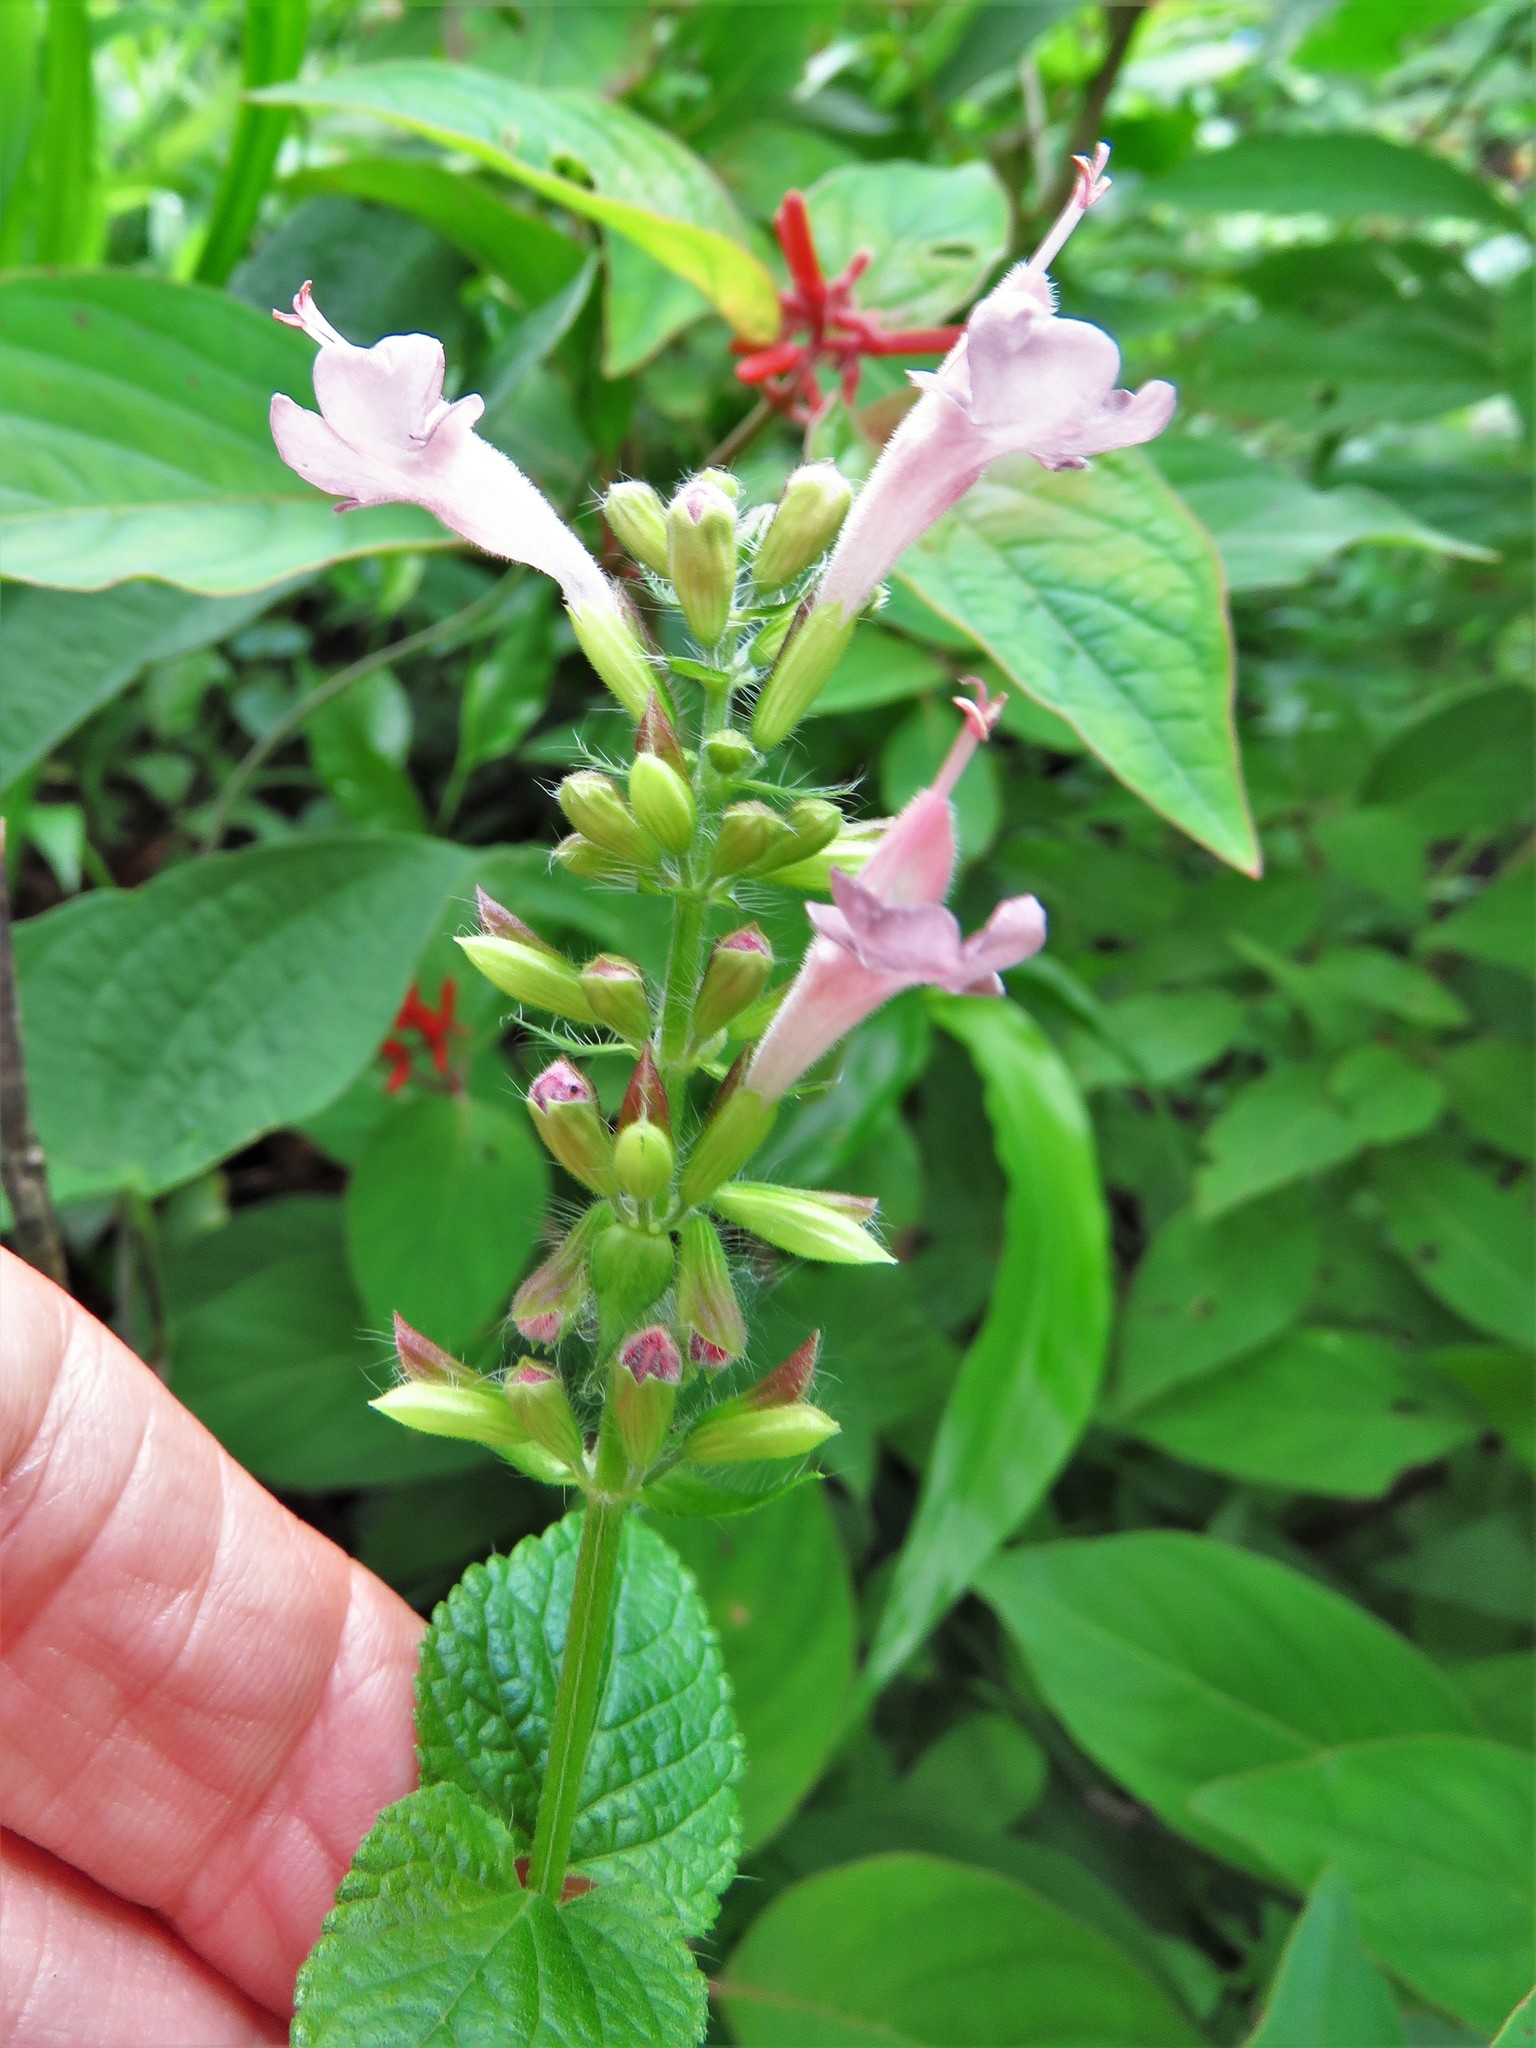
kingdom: Plantae
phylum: Tracheophyta
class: Magnoliopsida
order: Lamiales
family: Lamiaceae
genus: Salvia
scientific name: Salvia coccinea
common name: Blood sage
